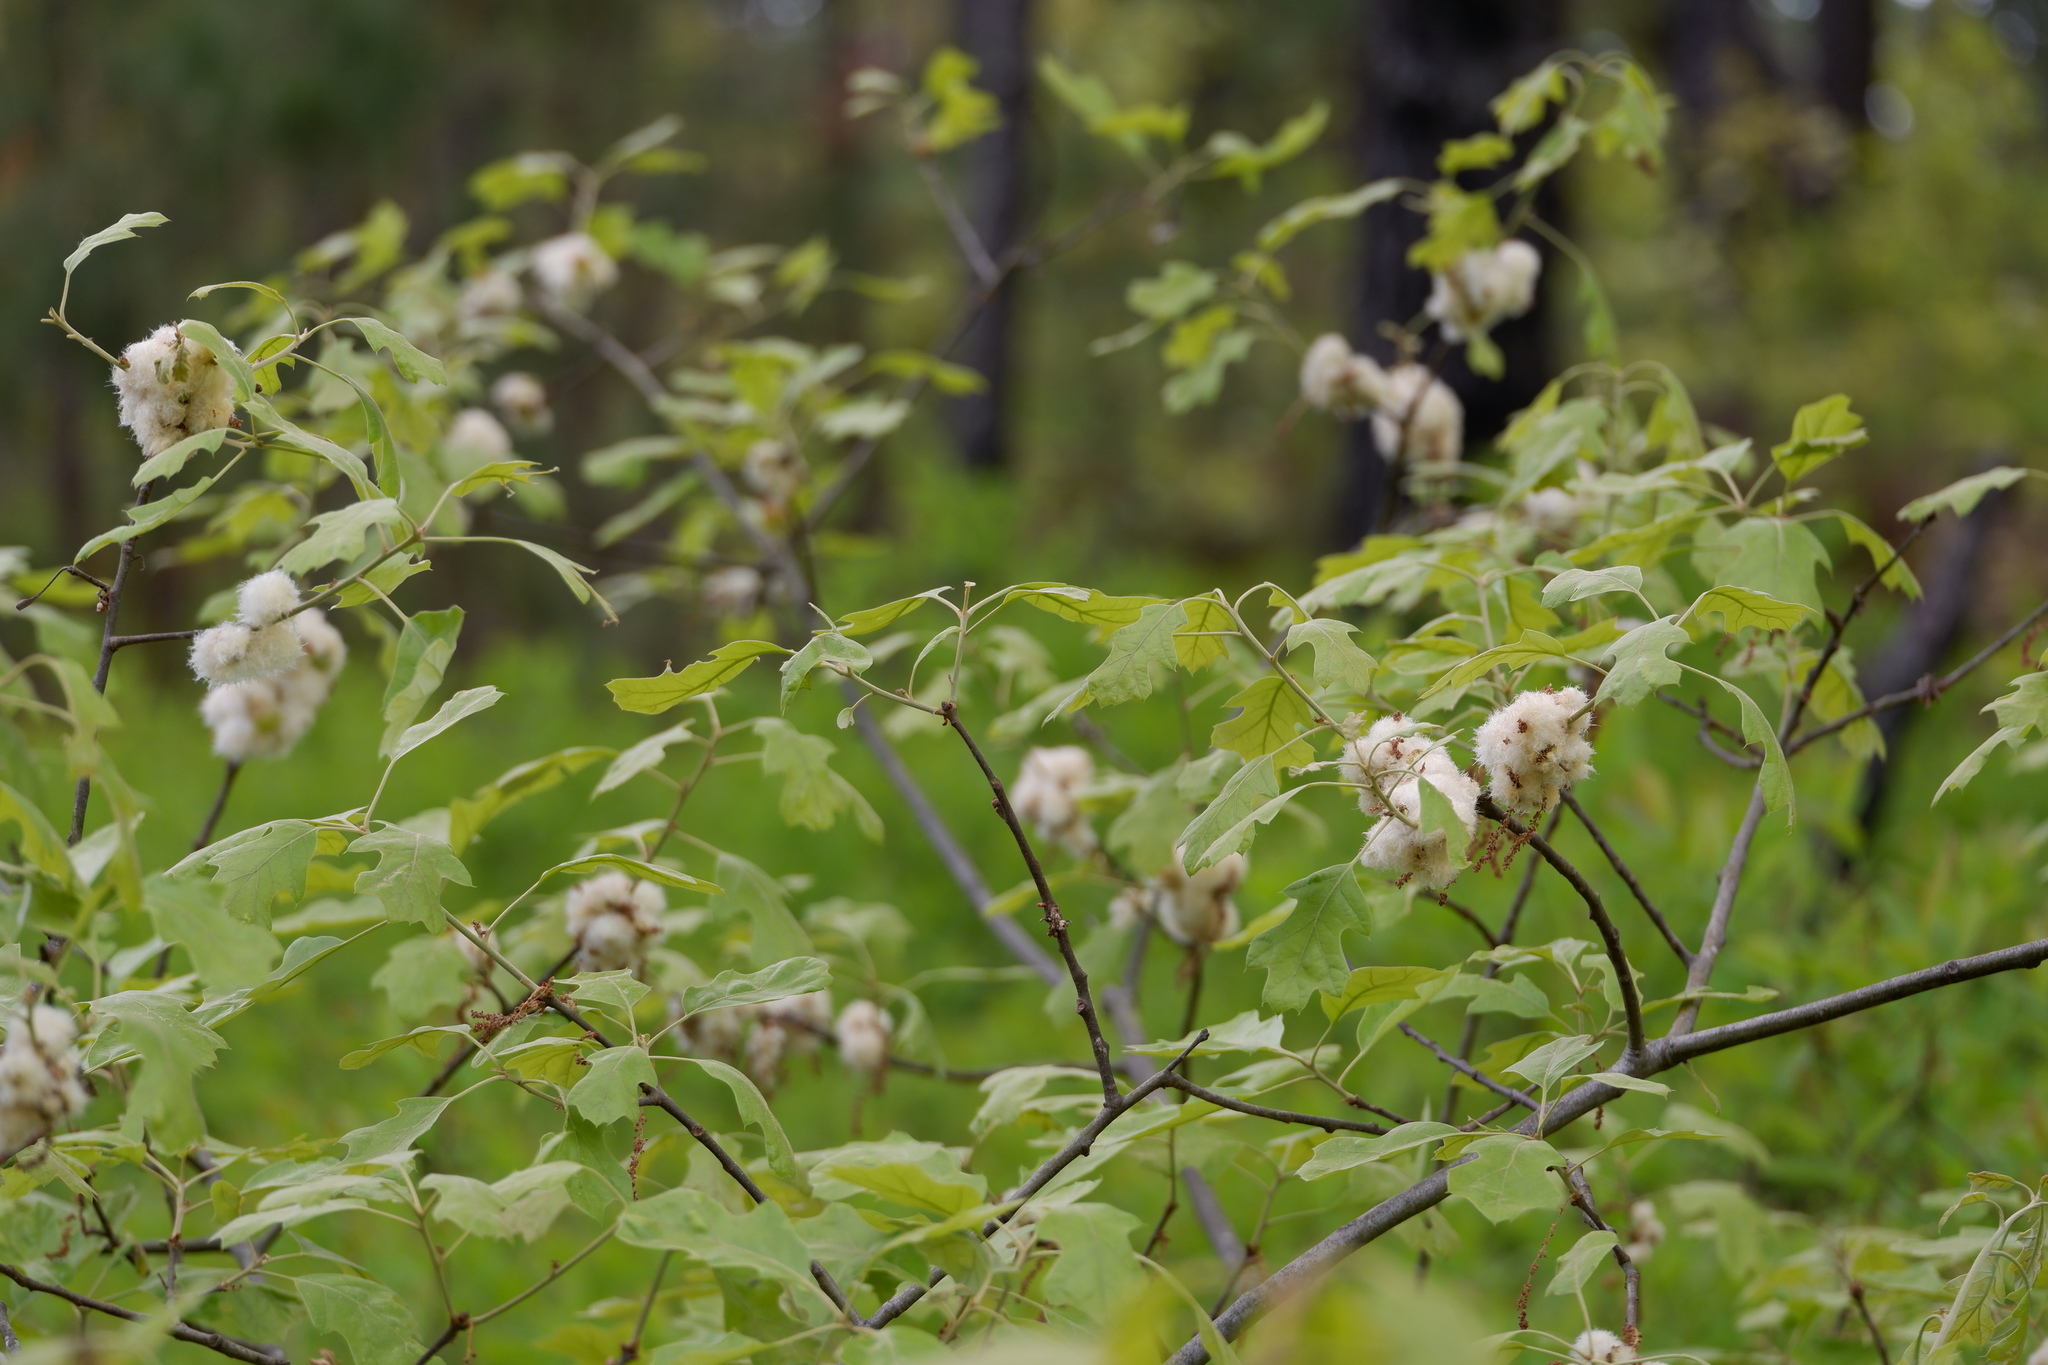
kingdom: Animalia
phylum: Arthropoda
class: Insecta
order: Hymenoptera
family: Cynipidae
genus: Callirhytis
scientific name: Callirhytis
